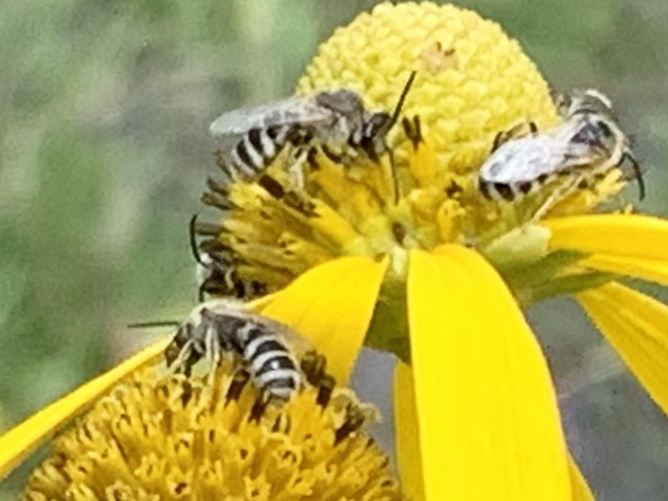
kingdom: Animalia
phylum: Arthropoda
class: Insecta
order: Hymenoptera
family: Halictidae
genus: Lasioglossum
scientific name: Lasioglossum sisymbrii
